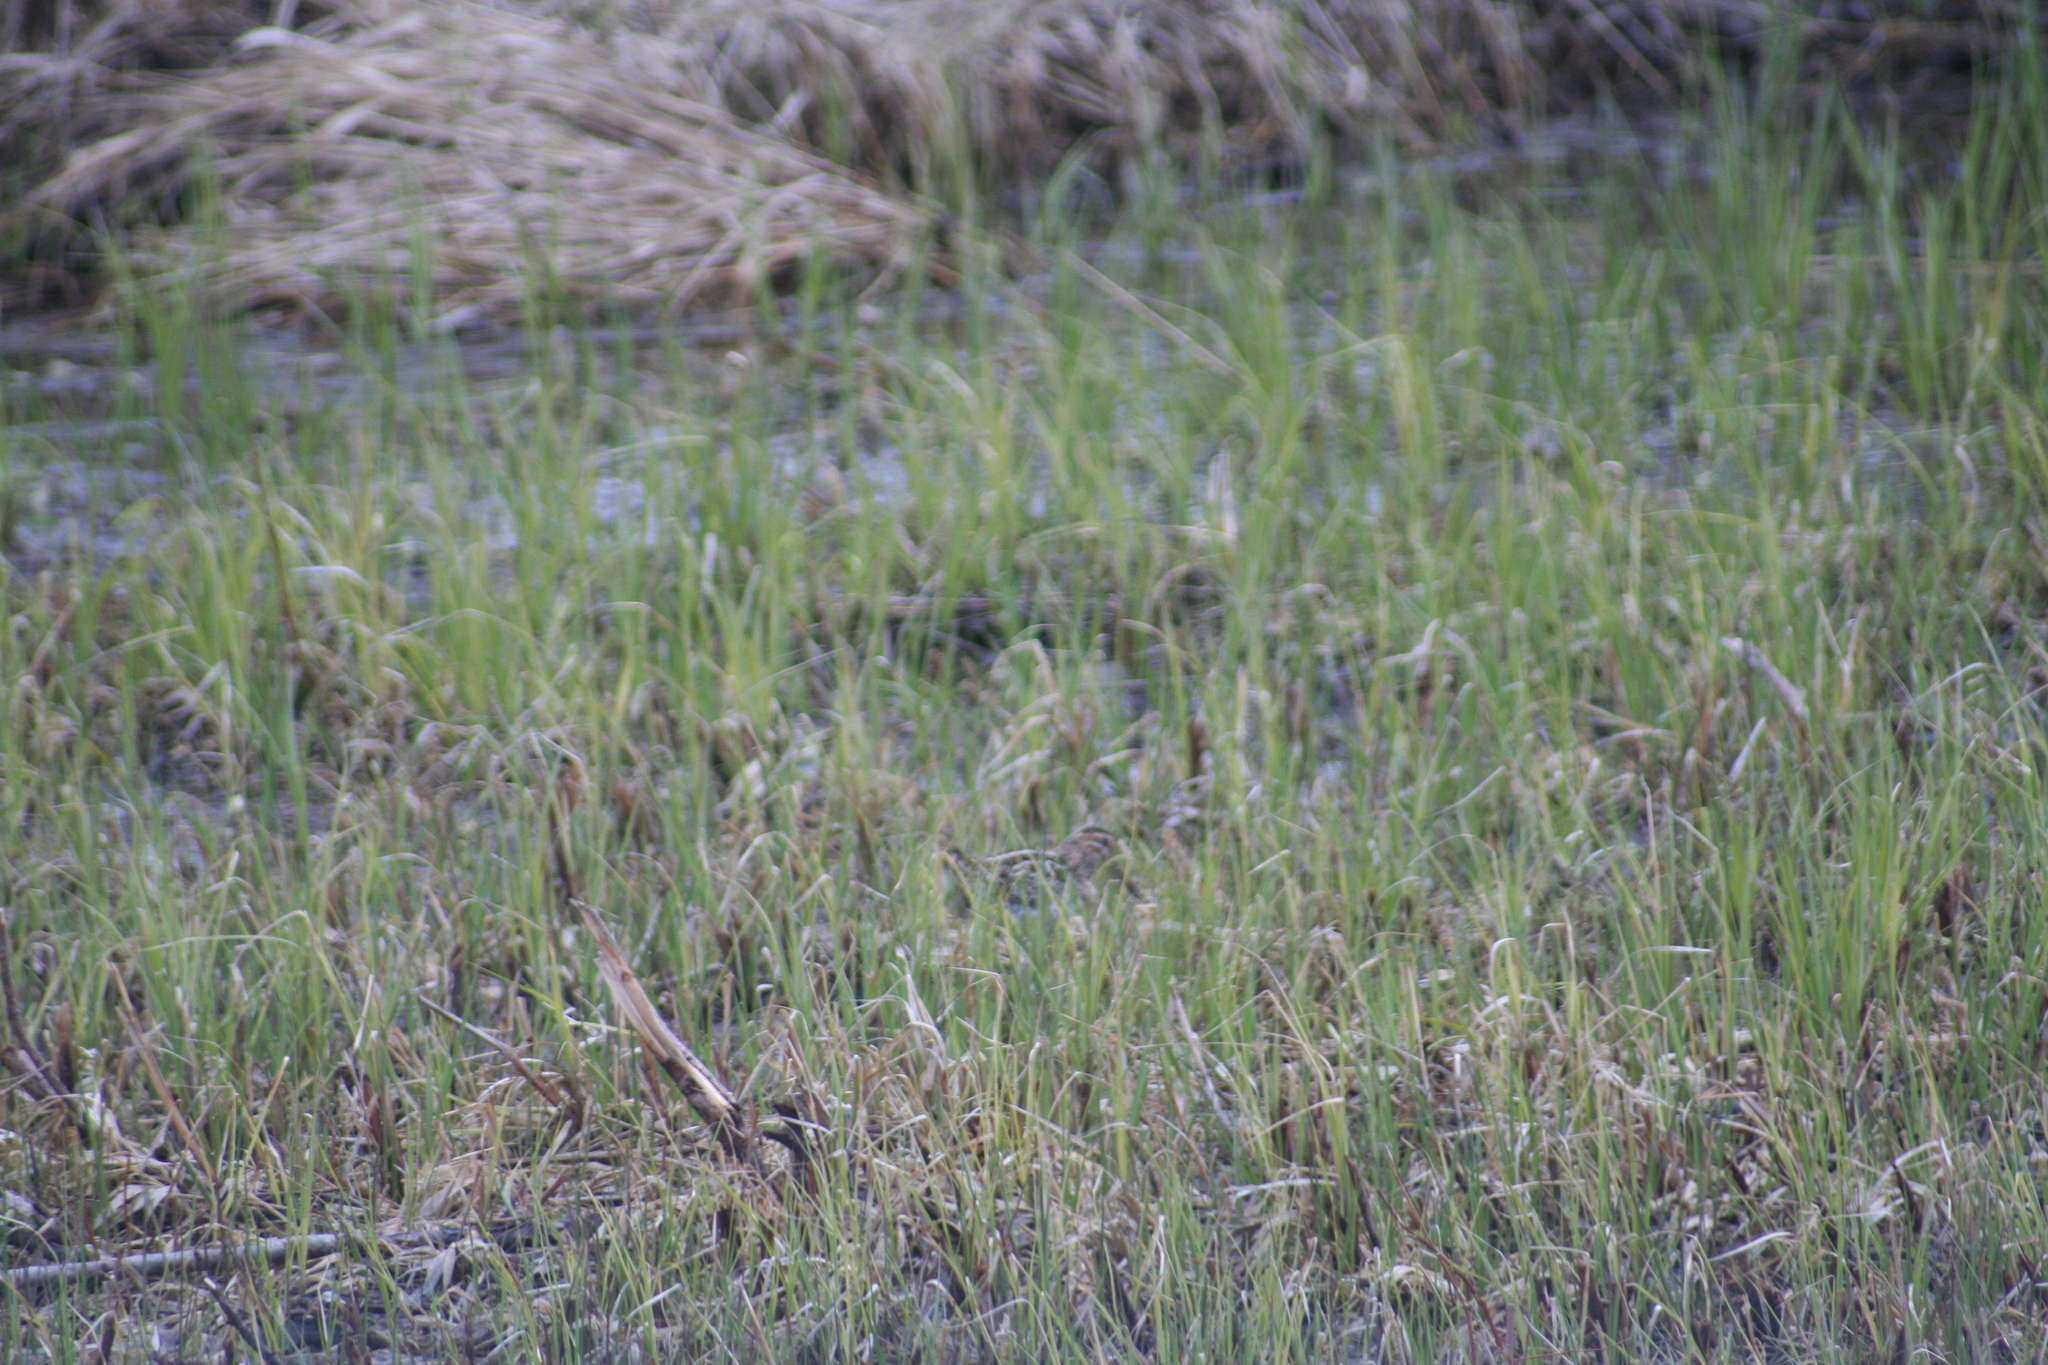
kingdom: Animalia
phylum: Chordata
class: Aves
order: Charadriiformes
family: Scolopacidae
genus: Gallinago
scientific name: Gallinago delicata
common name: Wilson's snipe
